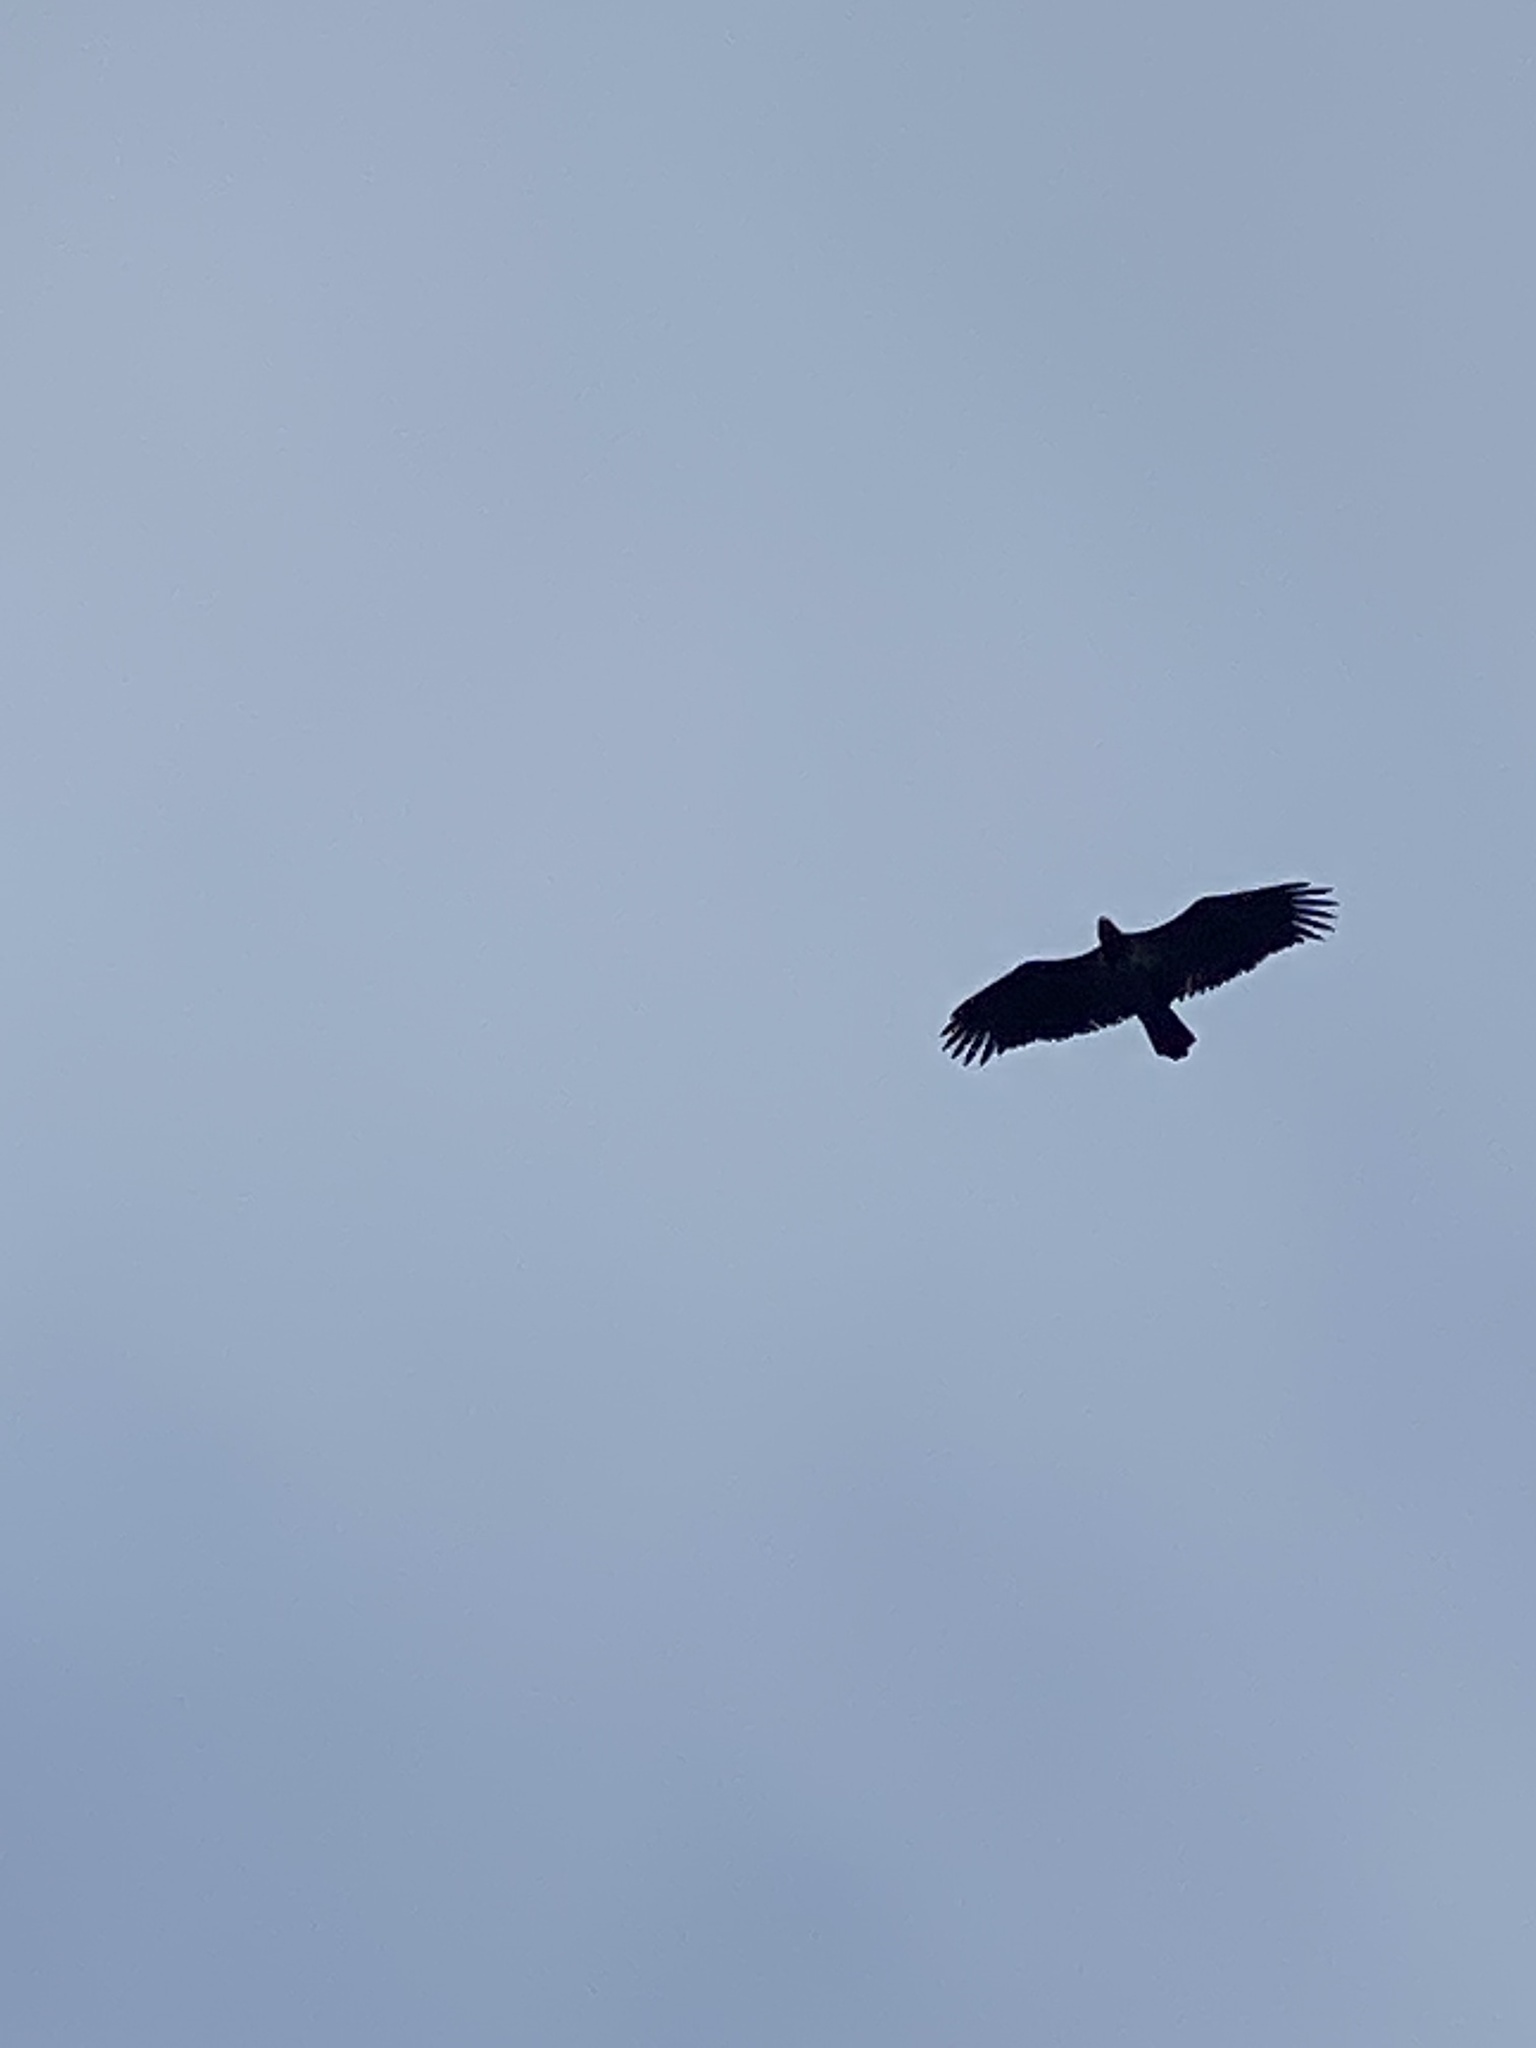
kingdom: Animalia
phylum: Chordata
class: Aves
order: Accipitriformes
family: Accipitridae
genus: Haliaeetus
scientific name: Haliaeetus leucocephalus
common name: Bald eagle
